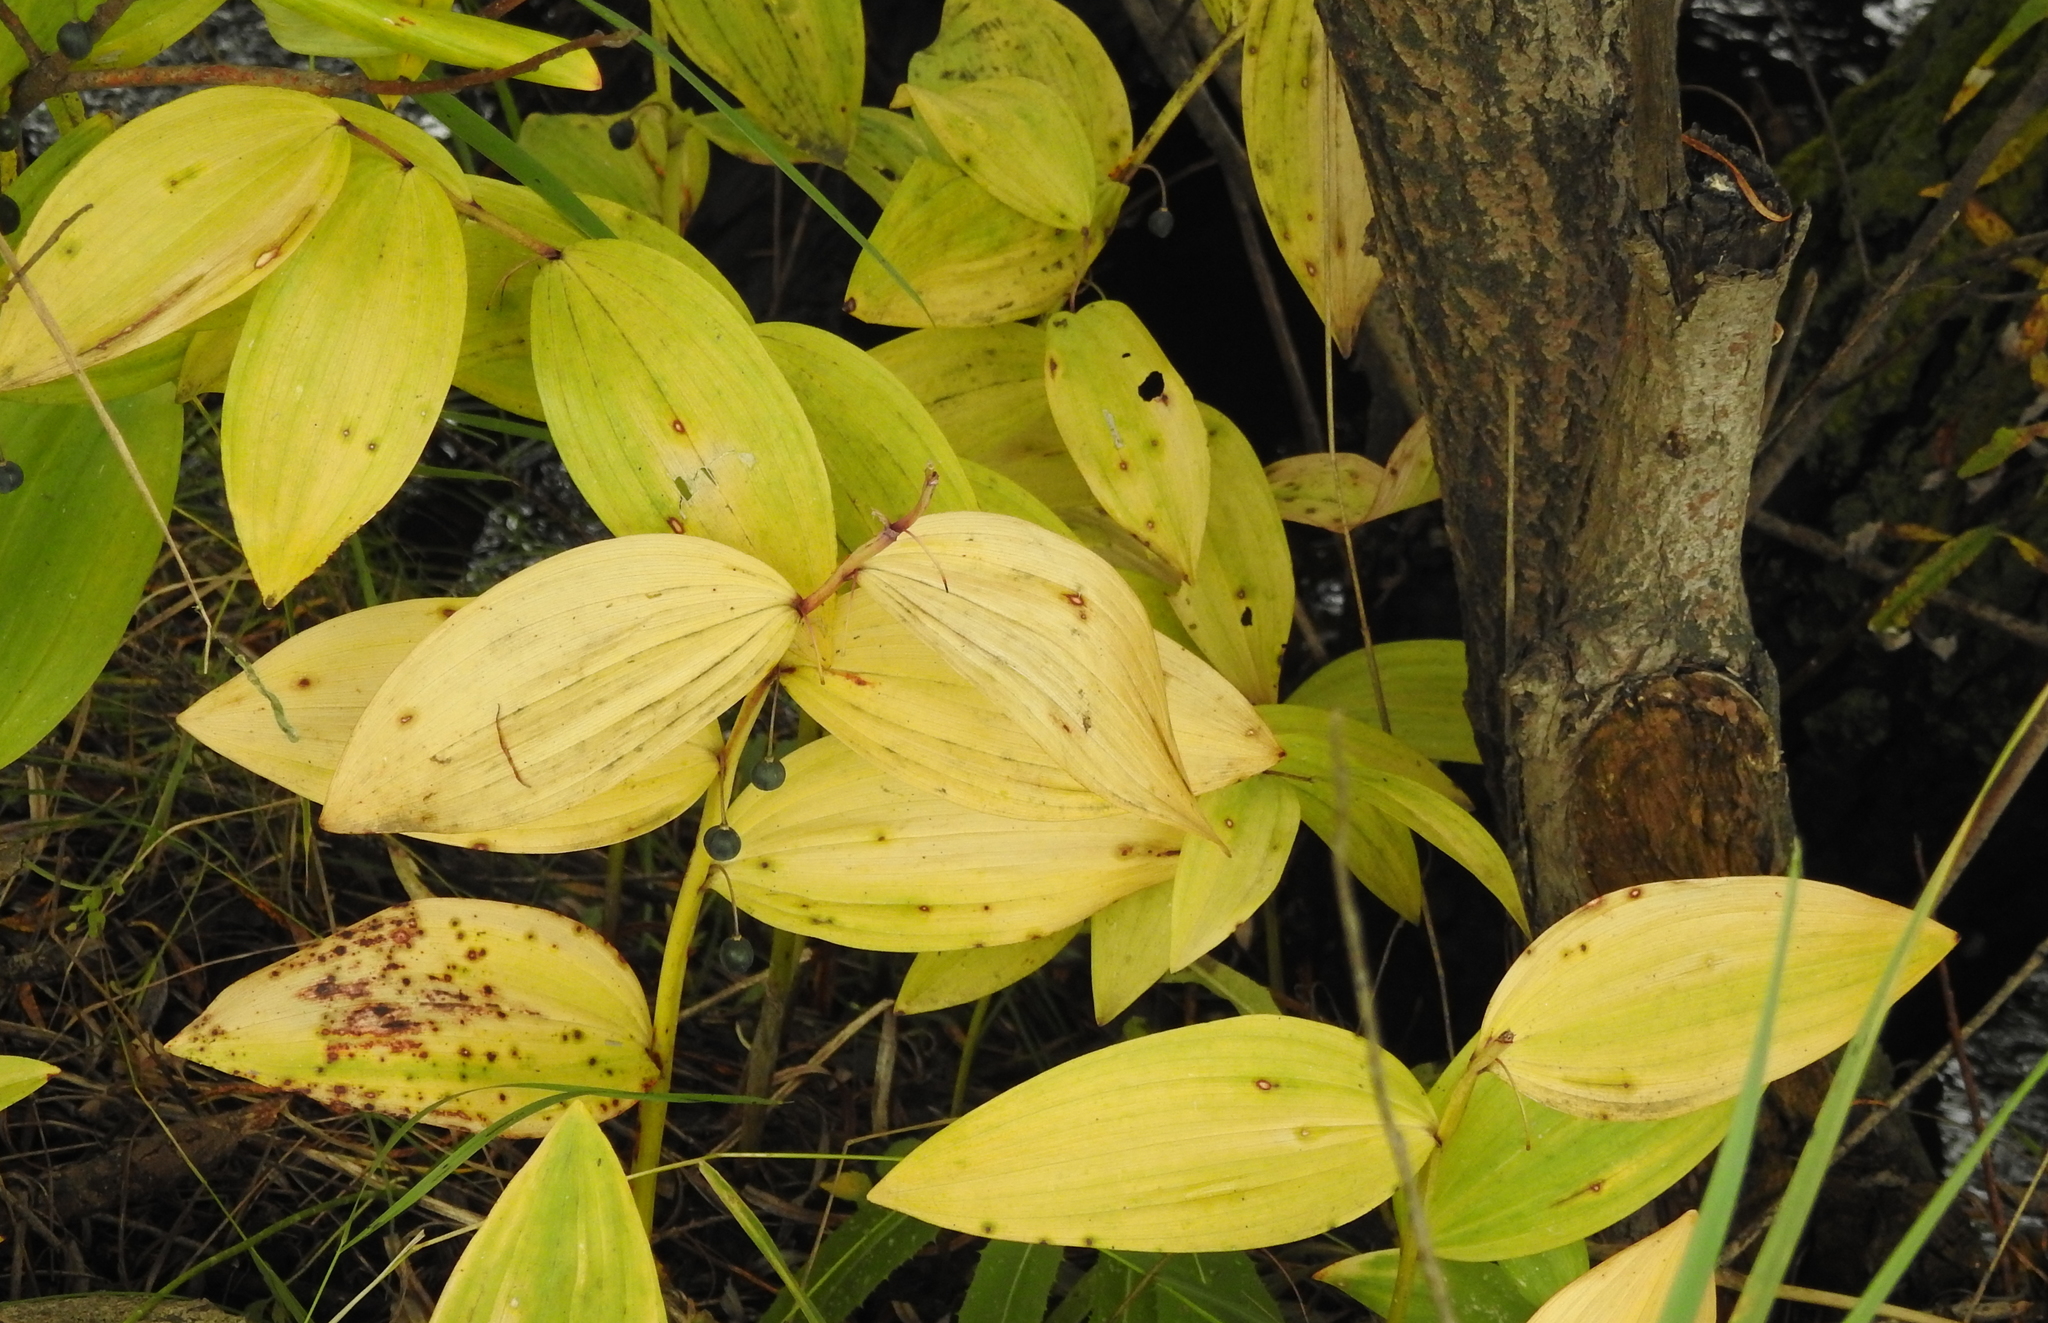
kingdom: Plantae
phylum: Tracheophyta
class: Liliopsida
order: Asparagales
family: Asparagaceae
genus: Polygonatum
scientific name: Polygonatum odoratum
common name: Angular solomon's-seal
